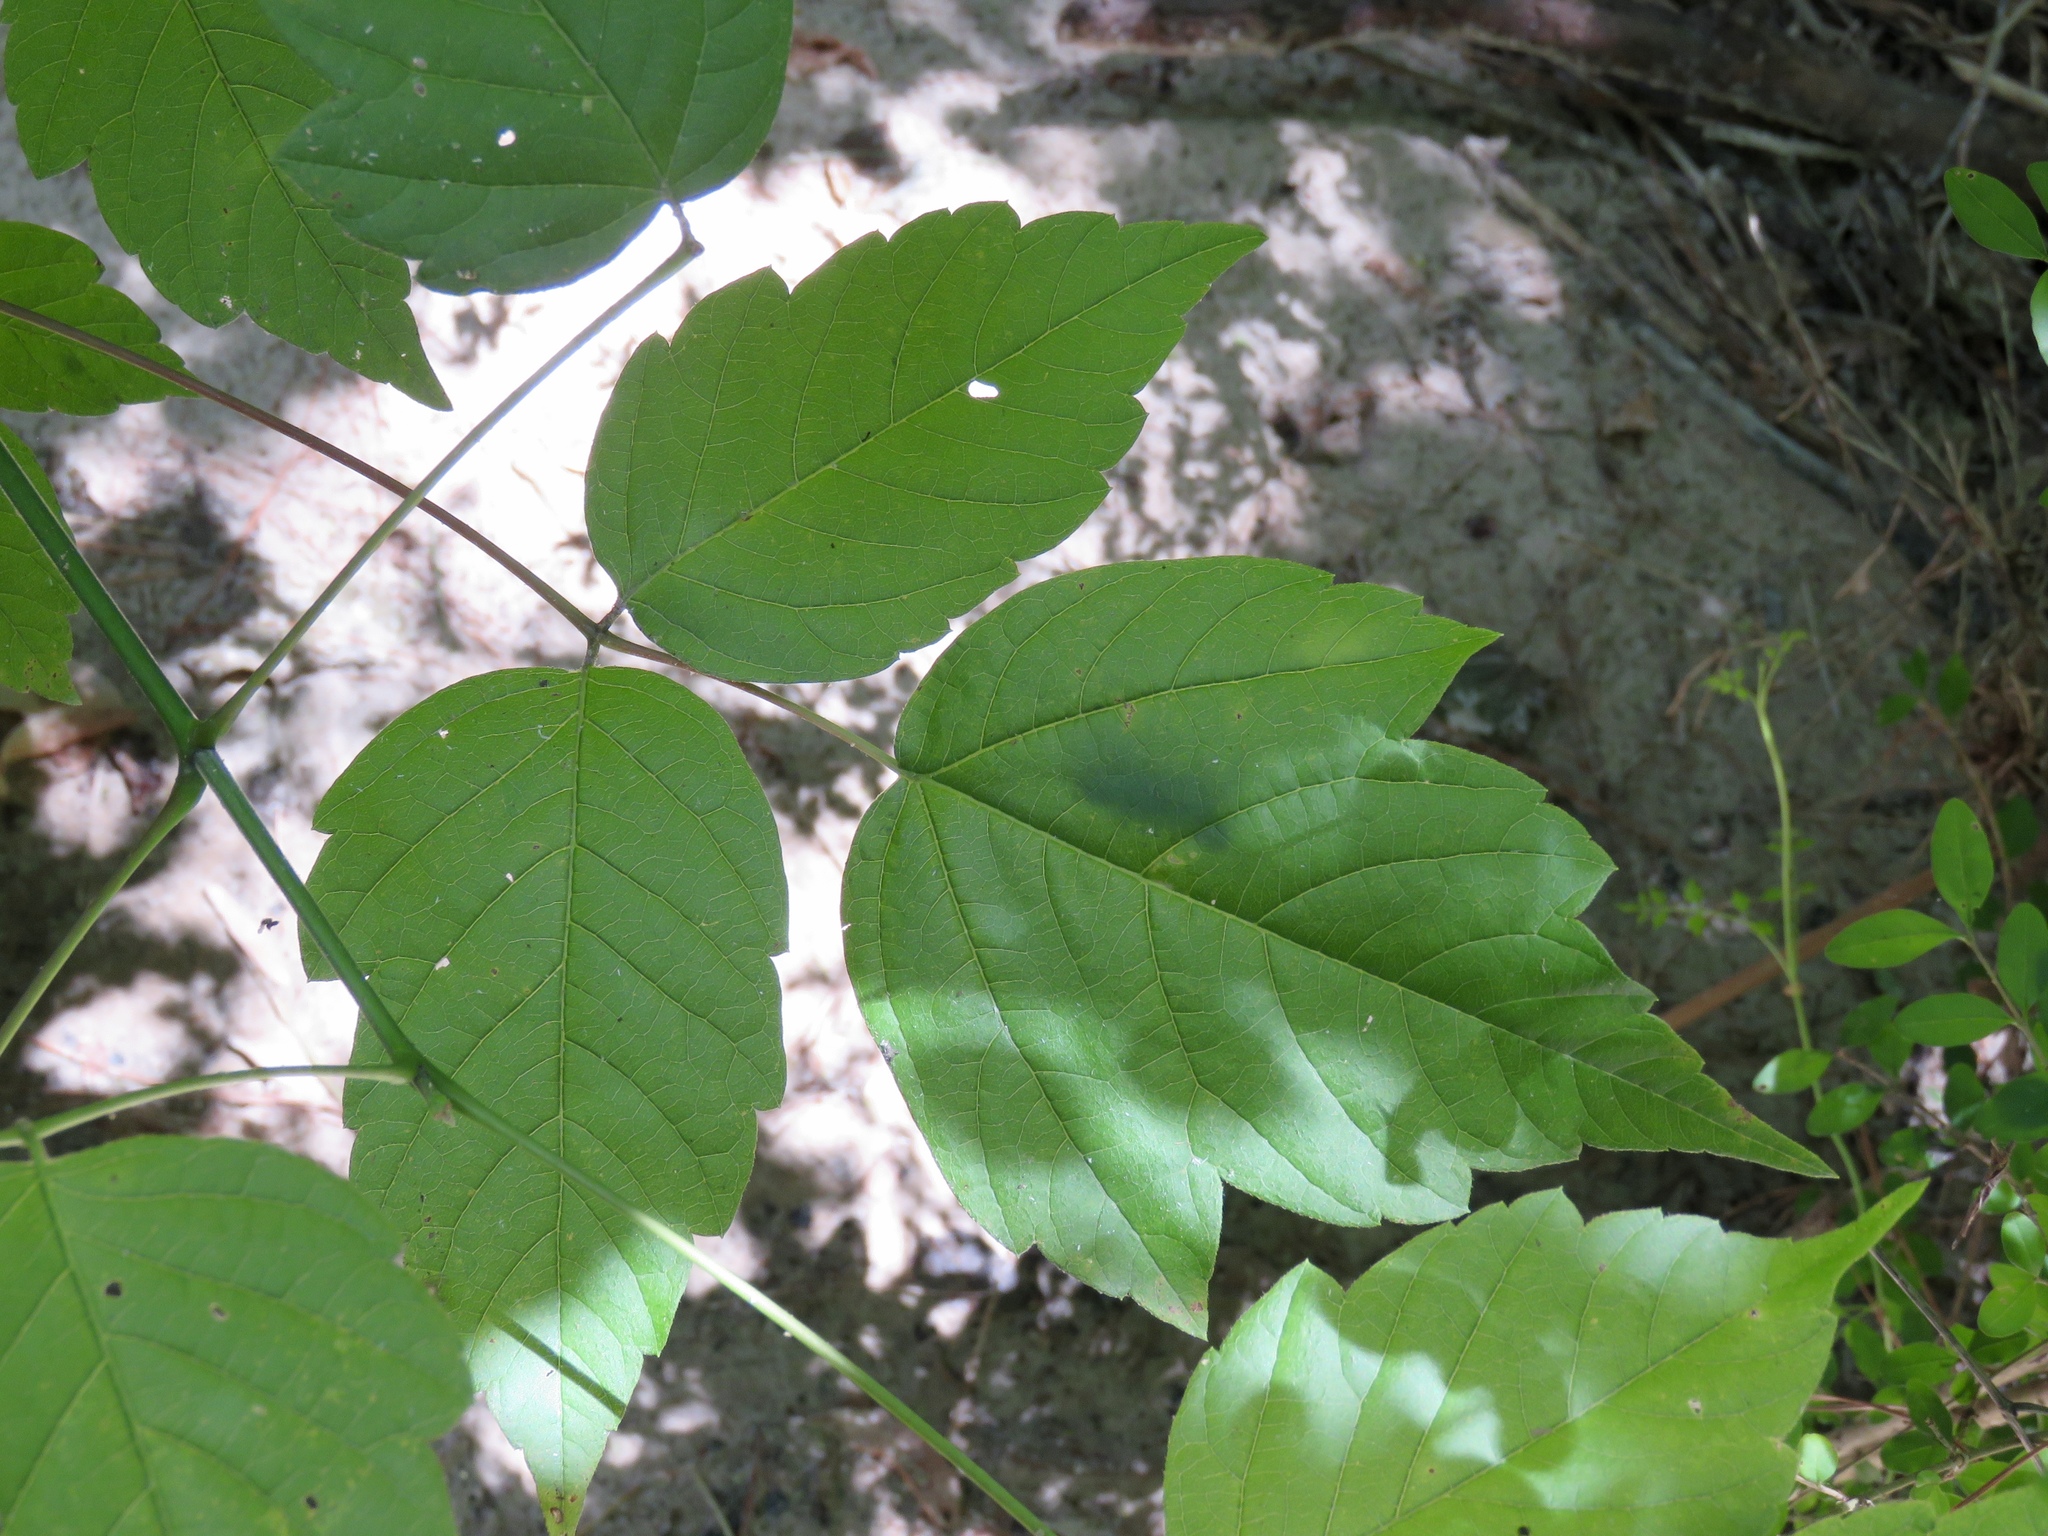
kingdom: Plantae
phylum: Tracheophyta
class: Magnoliopsida
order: Sapindales
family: Sapindaceae
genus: Acer
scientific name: Acer negundo
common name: Ashleaf maple
